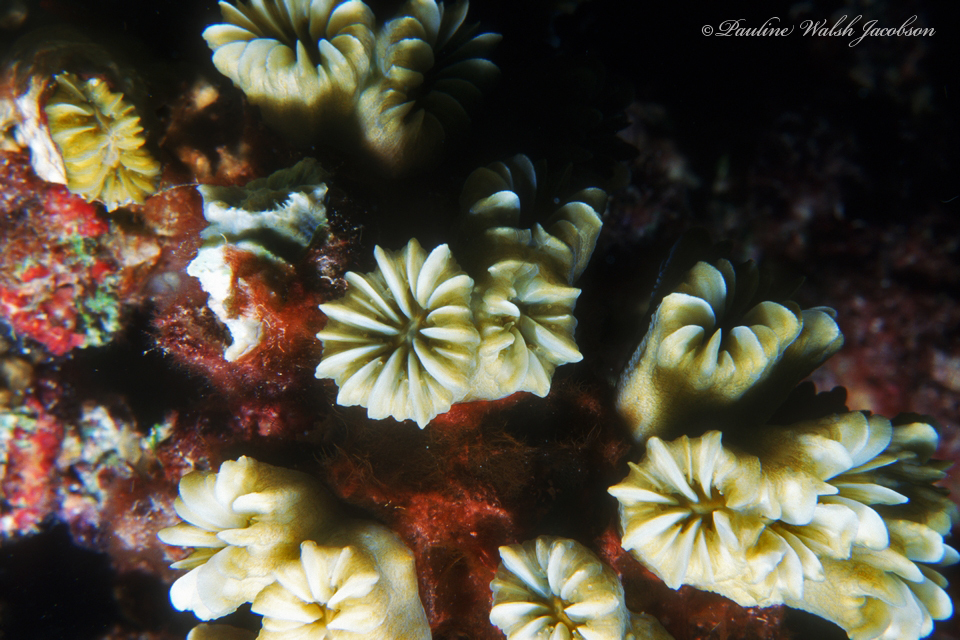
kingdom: Animalia
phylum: Cnidaria
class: Anthozoa
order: Scleractinia
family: Meandrinidae
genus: Eusmilia
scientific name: Eusmilia fastigiata
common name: Smooth flower coral
